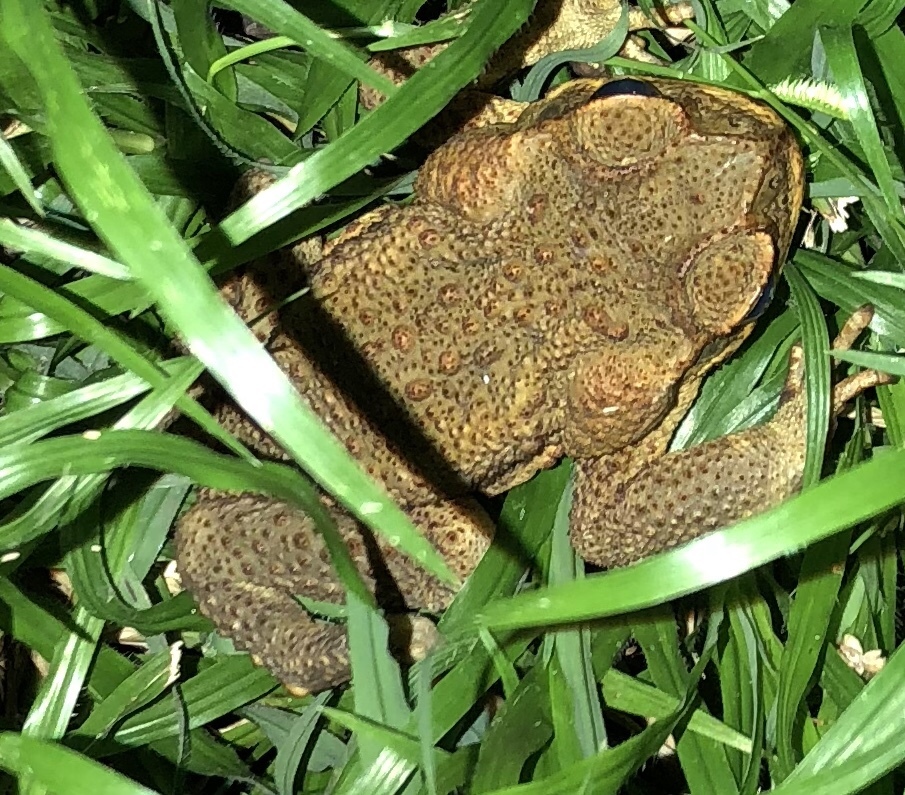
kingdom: Animalia
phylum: Chordata
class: Amphibia
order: Anura
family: Bufonidae
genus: Rhinella
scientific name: Rhinella marina
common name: Cane toad
